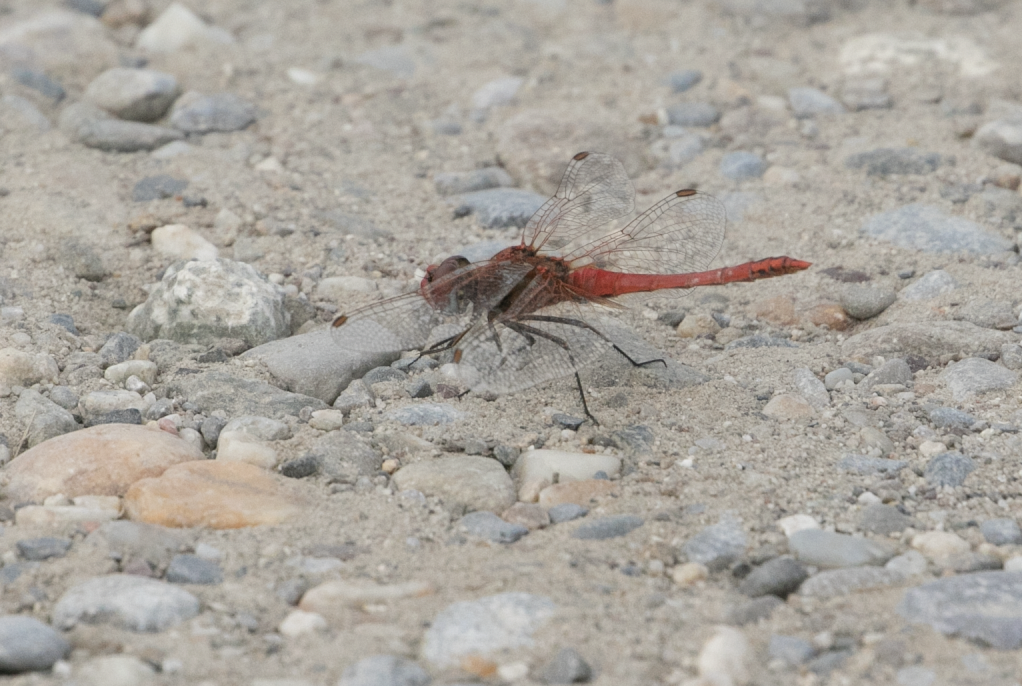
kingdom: Animalia
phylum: Arthropoda
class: Insecta
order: Odonata
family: Libellulidae
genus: Sympetrum
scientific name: Sympetrum fonscolombii
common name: Red-veined darter
